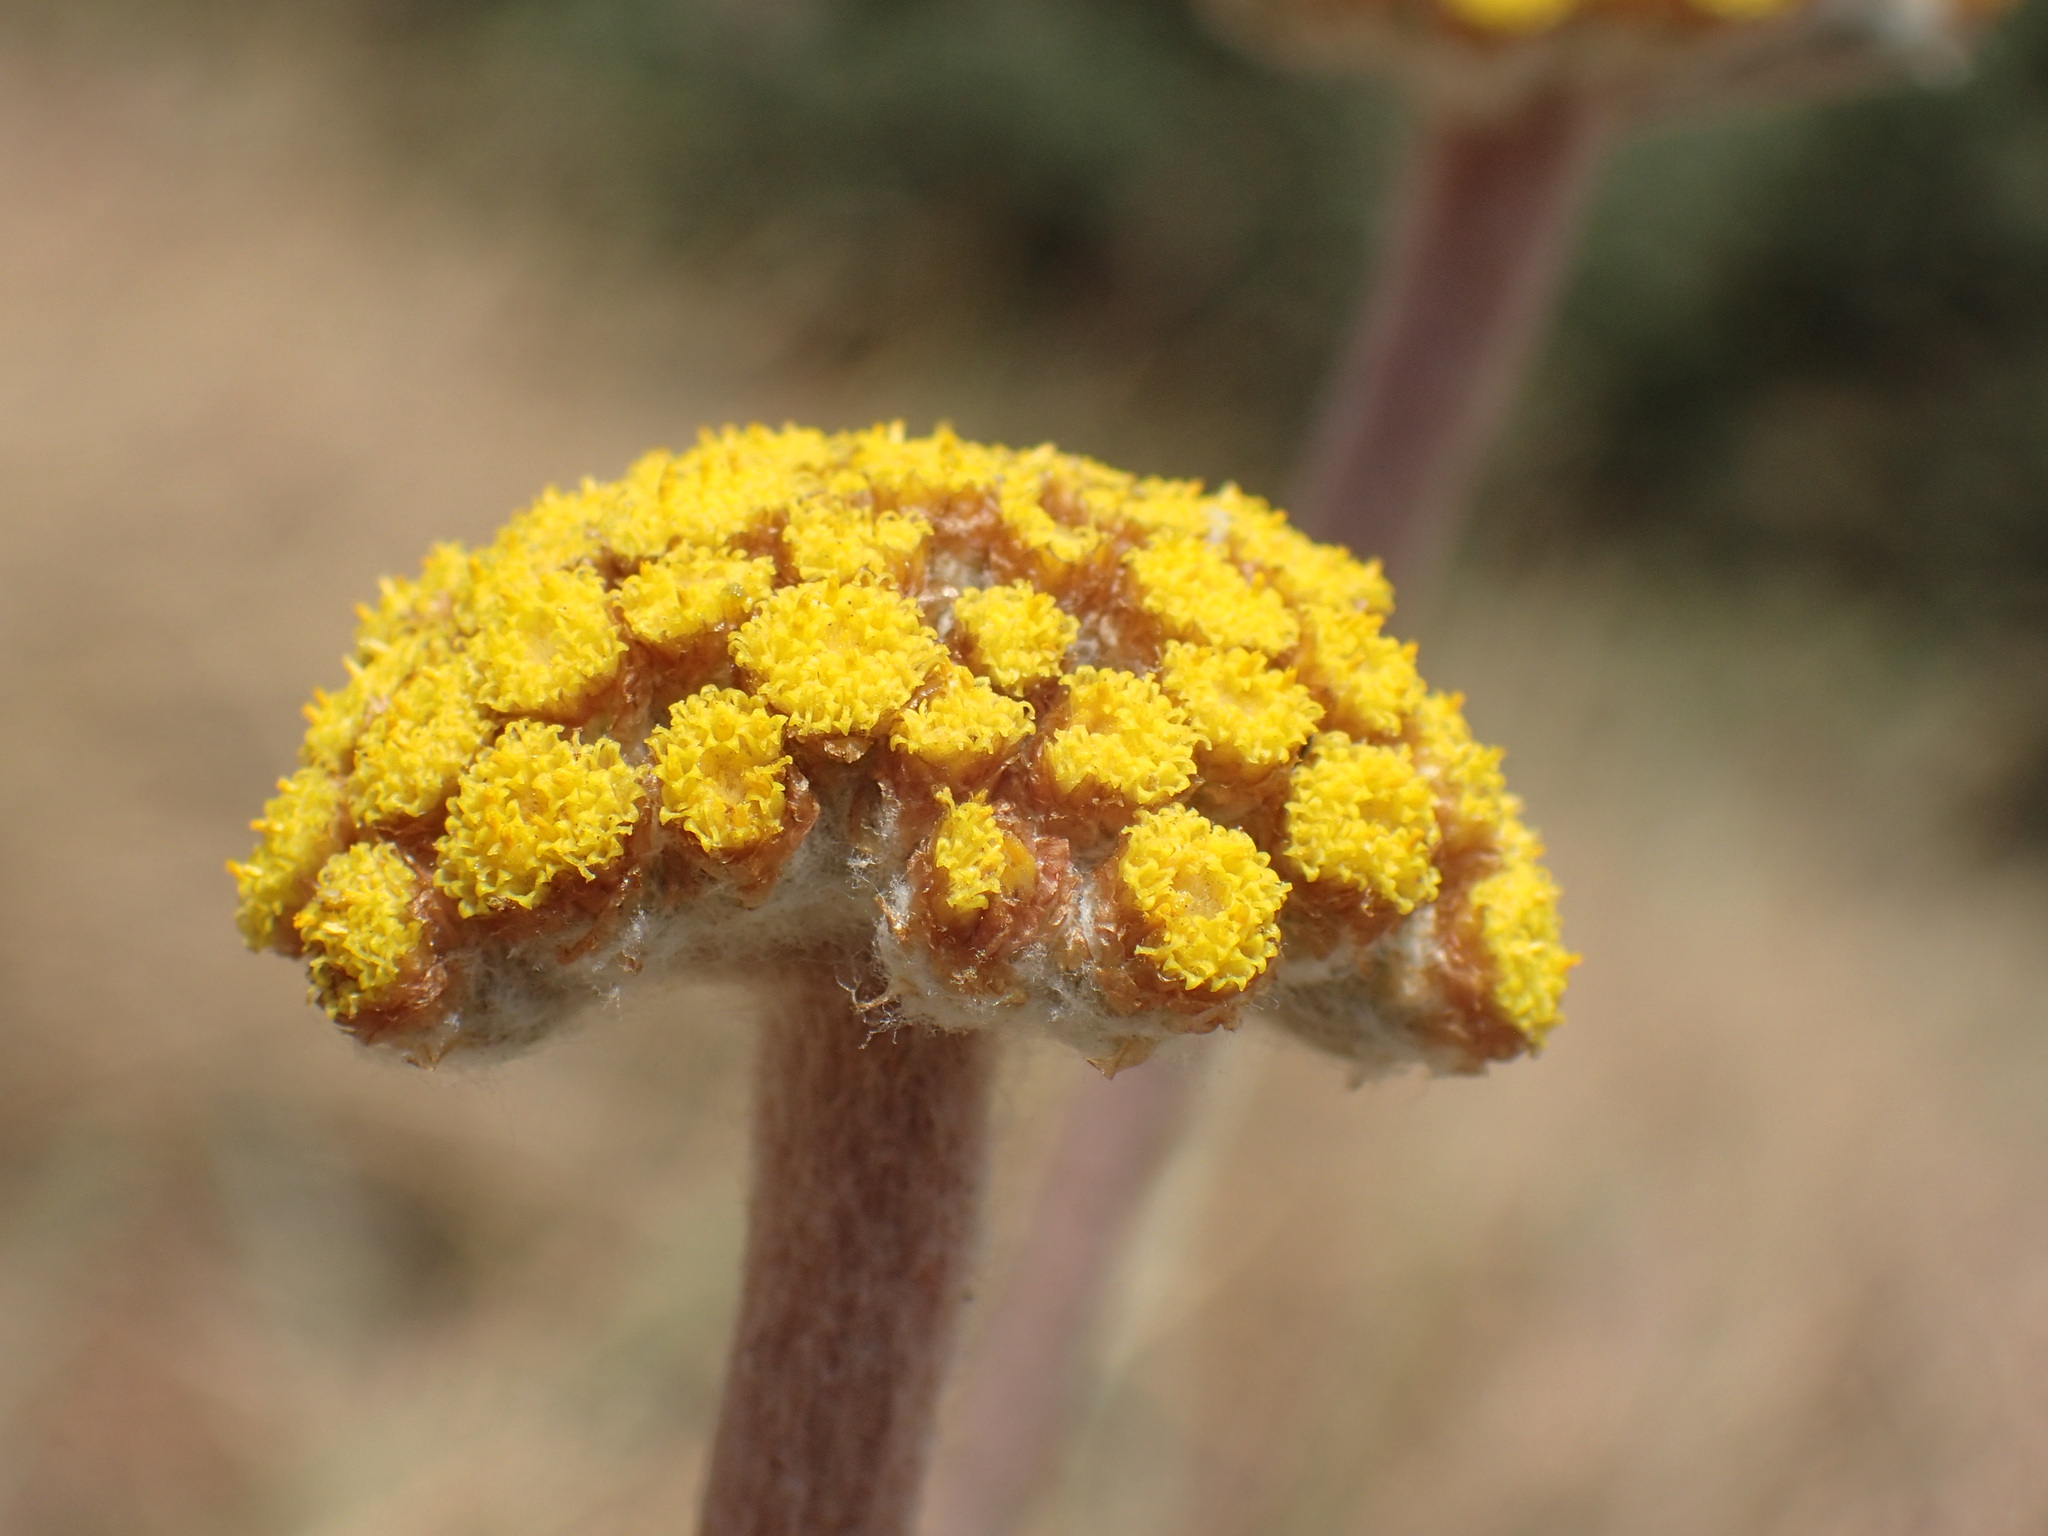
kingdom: Plantae
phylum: Tracheophyta
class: Magnoliopsida
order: Asterales
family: Asteraceae
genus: Helichrysum
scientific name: Helichrysum nudifolium
